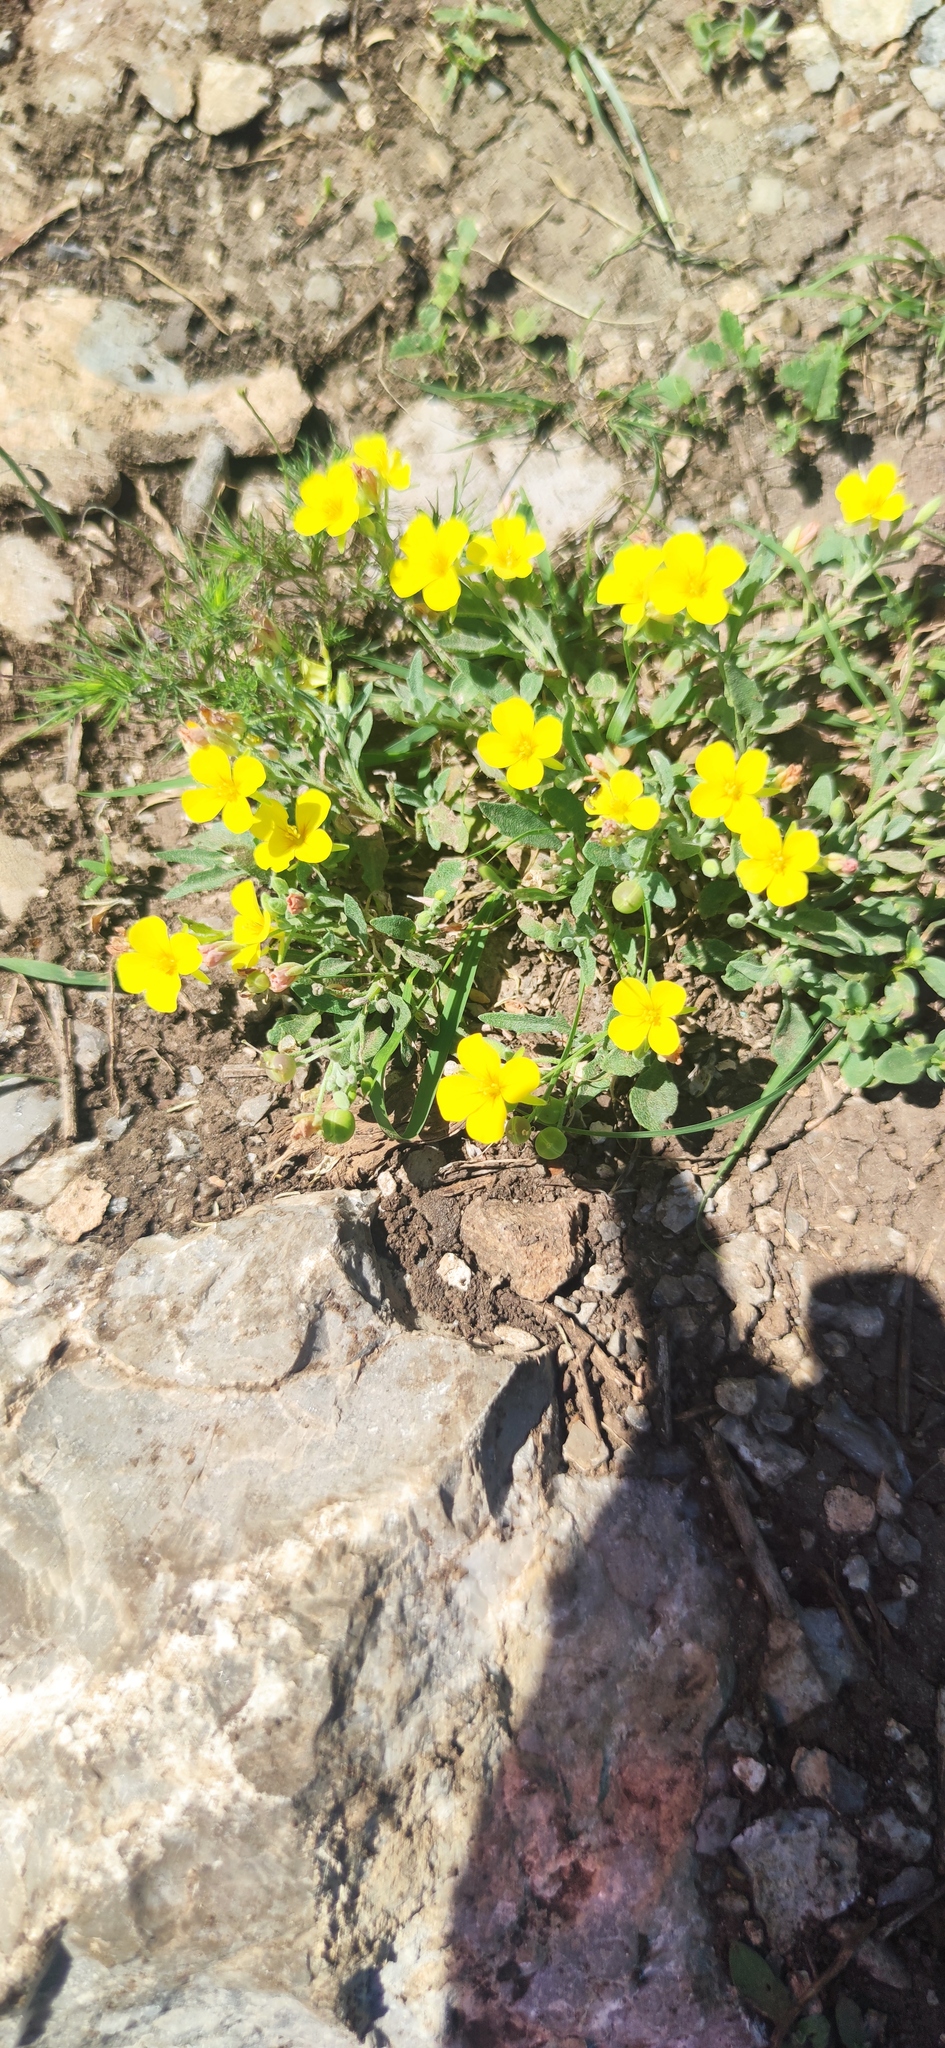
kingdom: Plantae
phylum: Tracheophyta
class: Magnoliopsida
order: Brassicales
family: Brassicaceae
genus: Physaria
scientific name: Physaria fendleri
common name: Fendler's bladderpod
